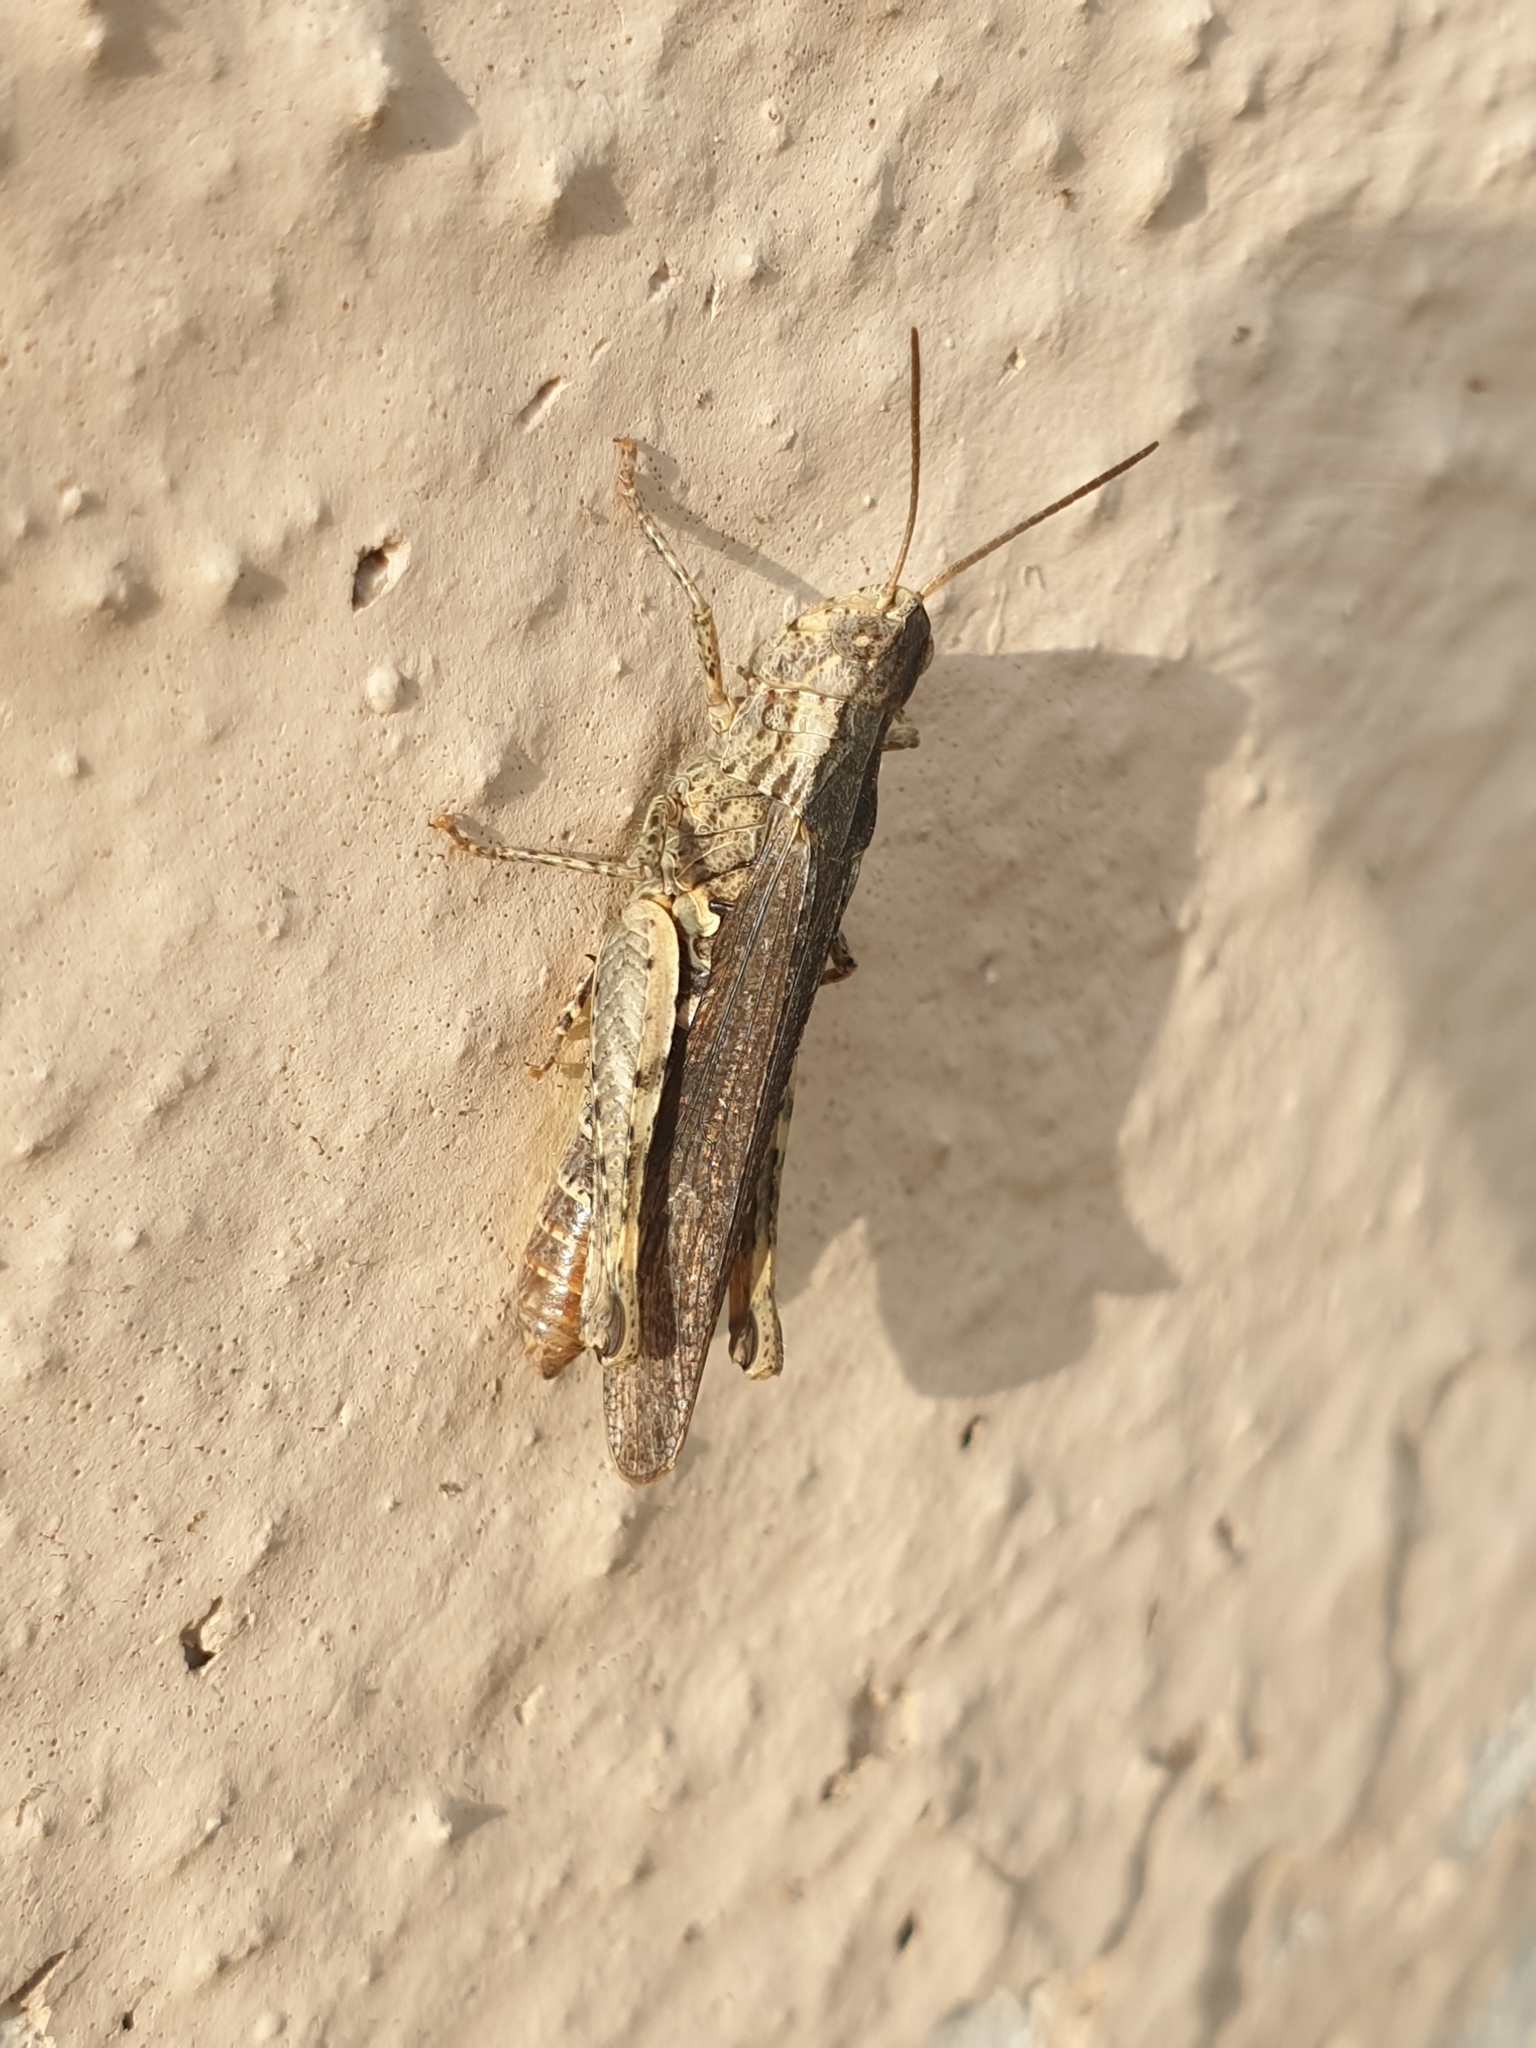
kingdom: Animalia
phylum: Arthropoda
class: Insecta
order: Orthoptera
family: Acrididae
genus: Chorthippus
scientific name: Chorthippus brunneus
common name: Field grasshopper
